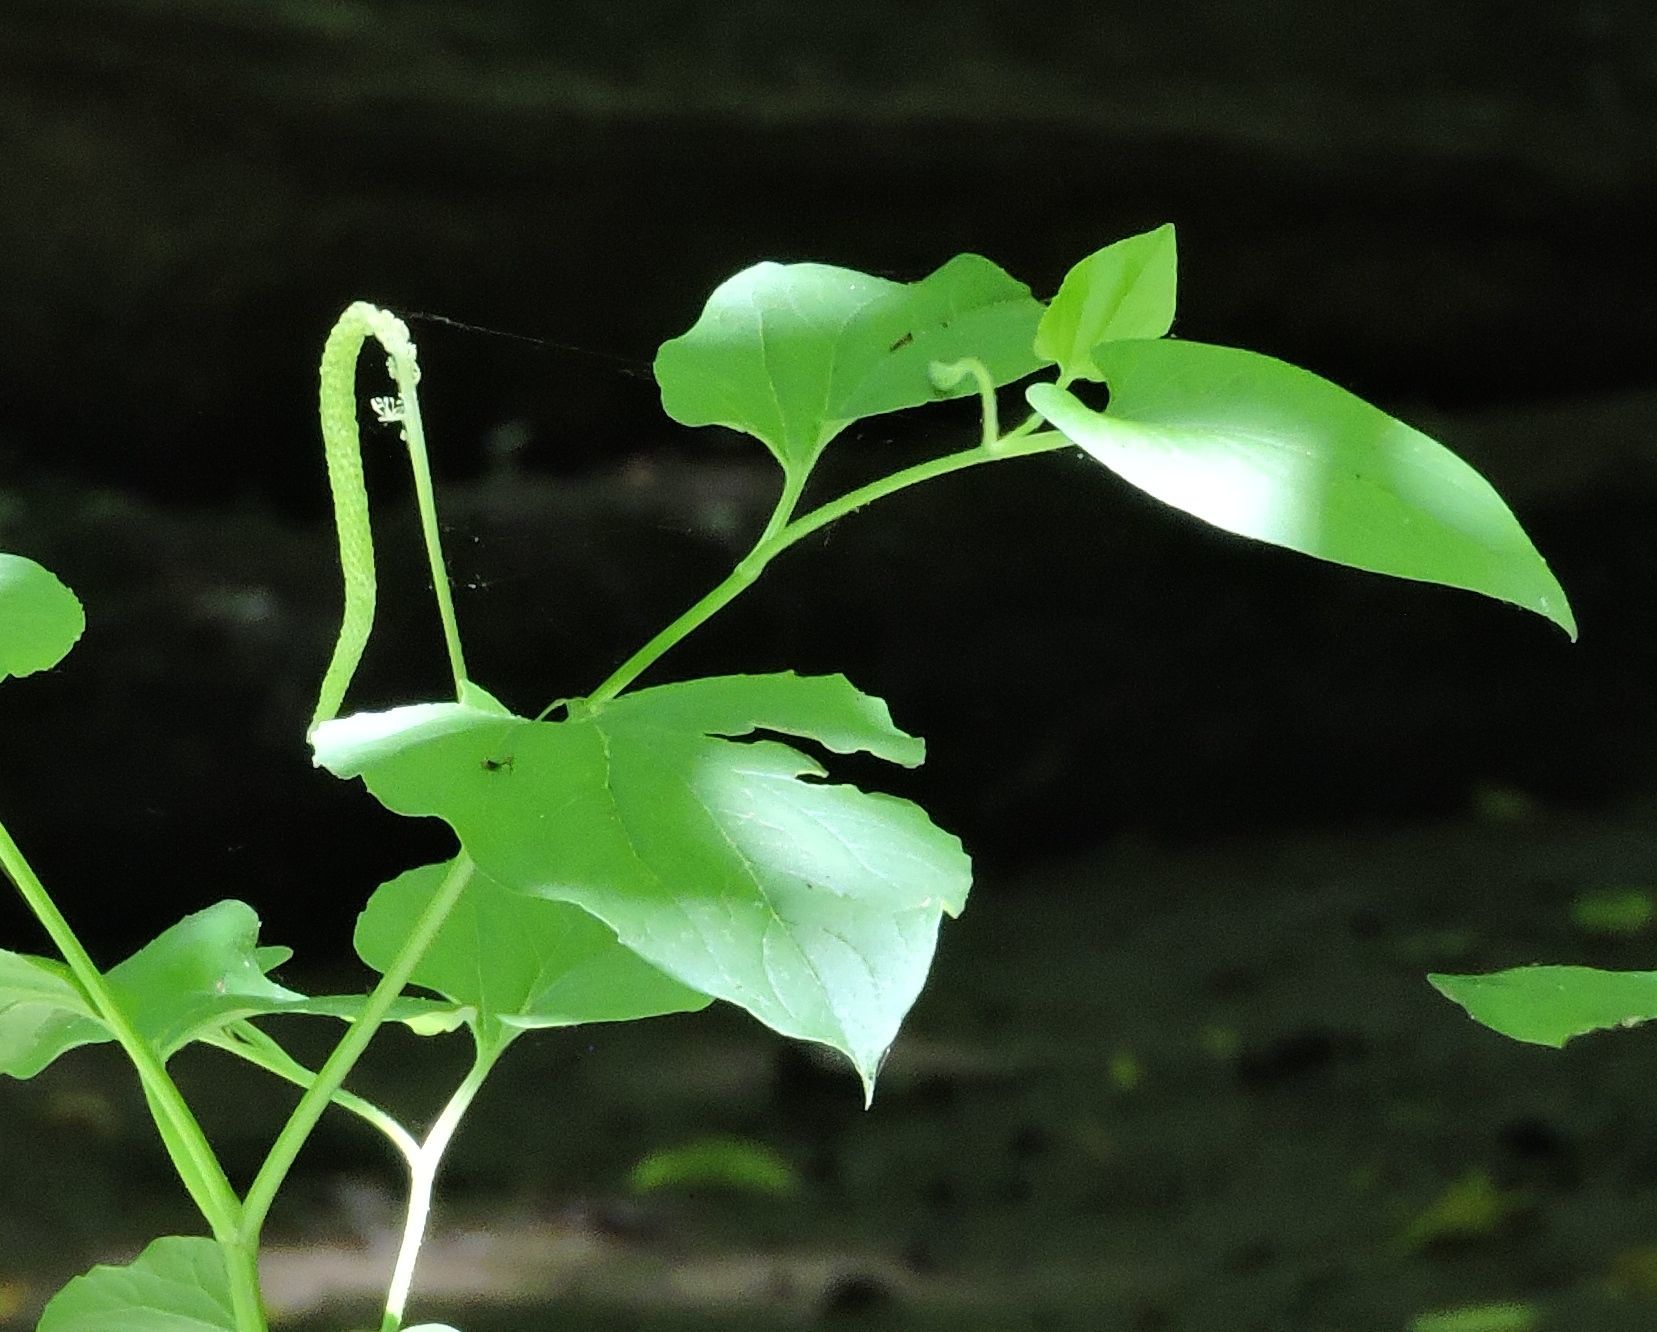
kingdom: Plantae
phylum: Tracheophyta
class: Magnoliopsida
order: Piperales
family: Saururaceae
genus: Saururus
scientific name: Saururus cernuus
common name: Lizard's-tail
